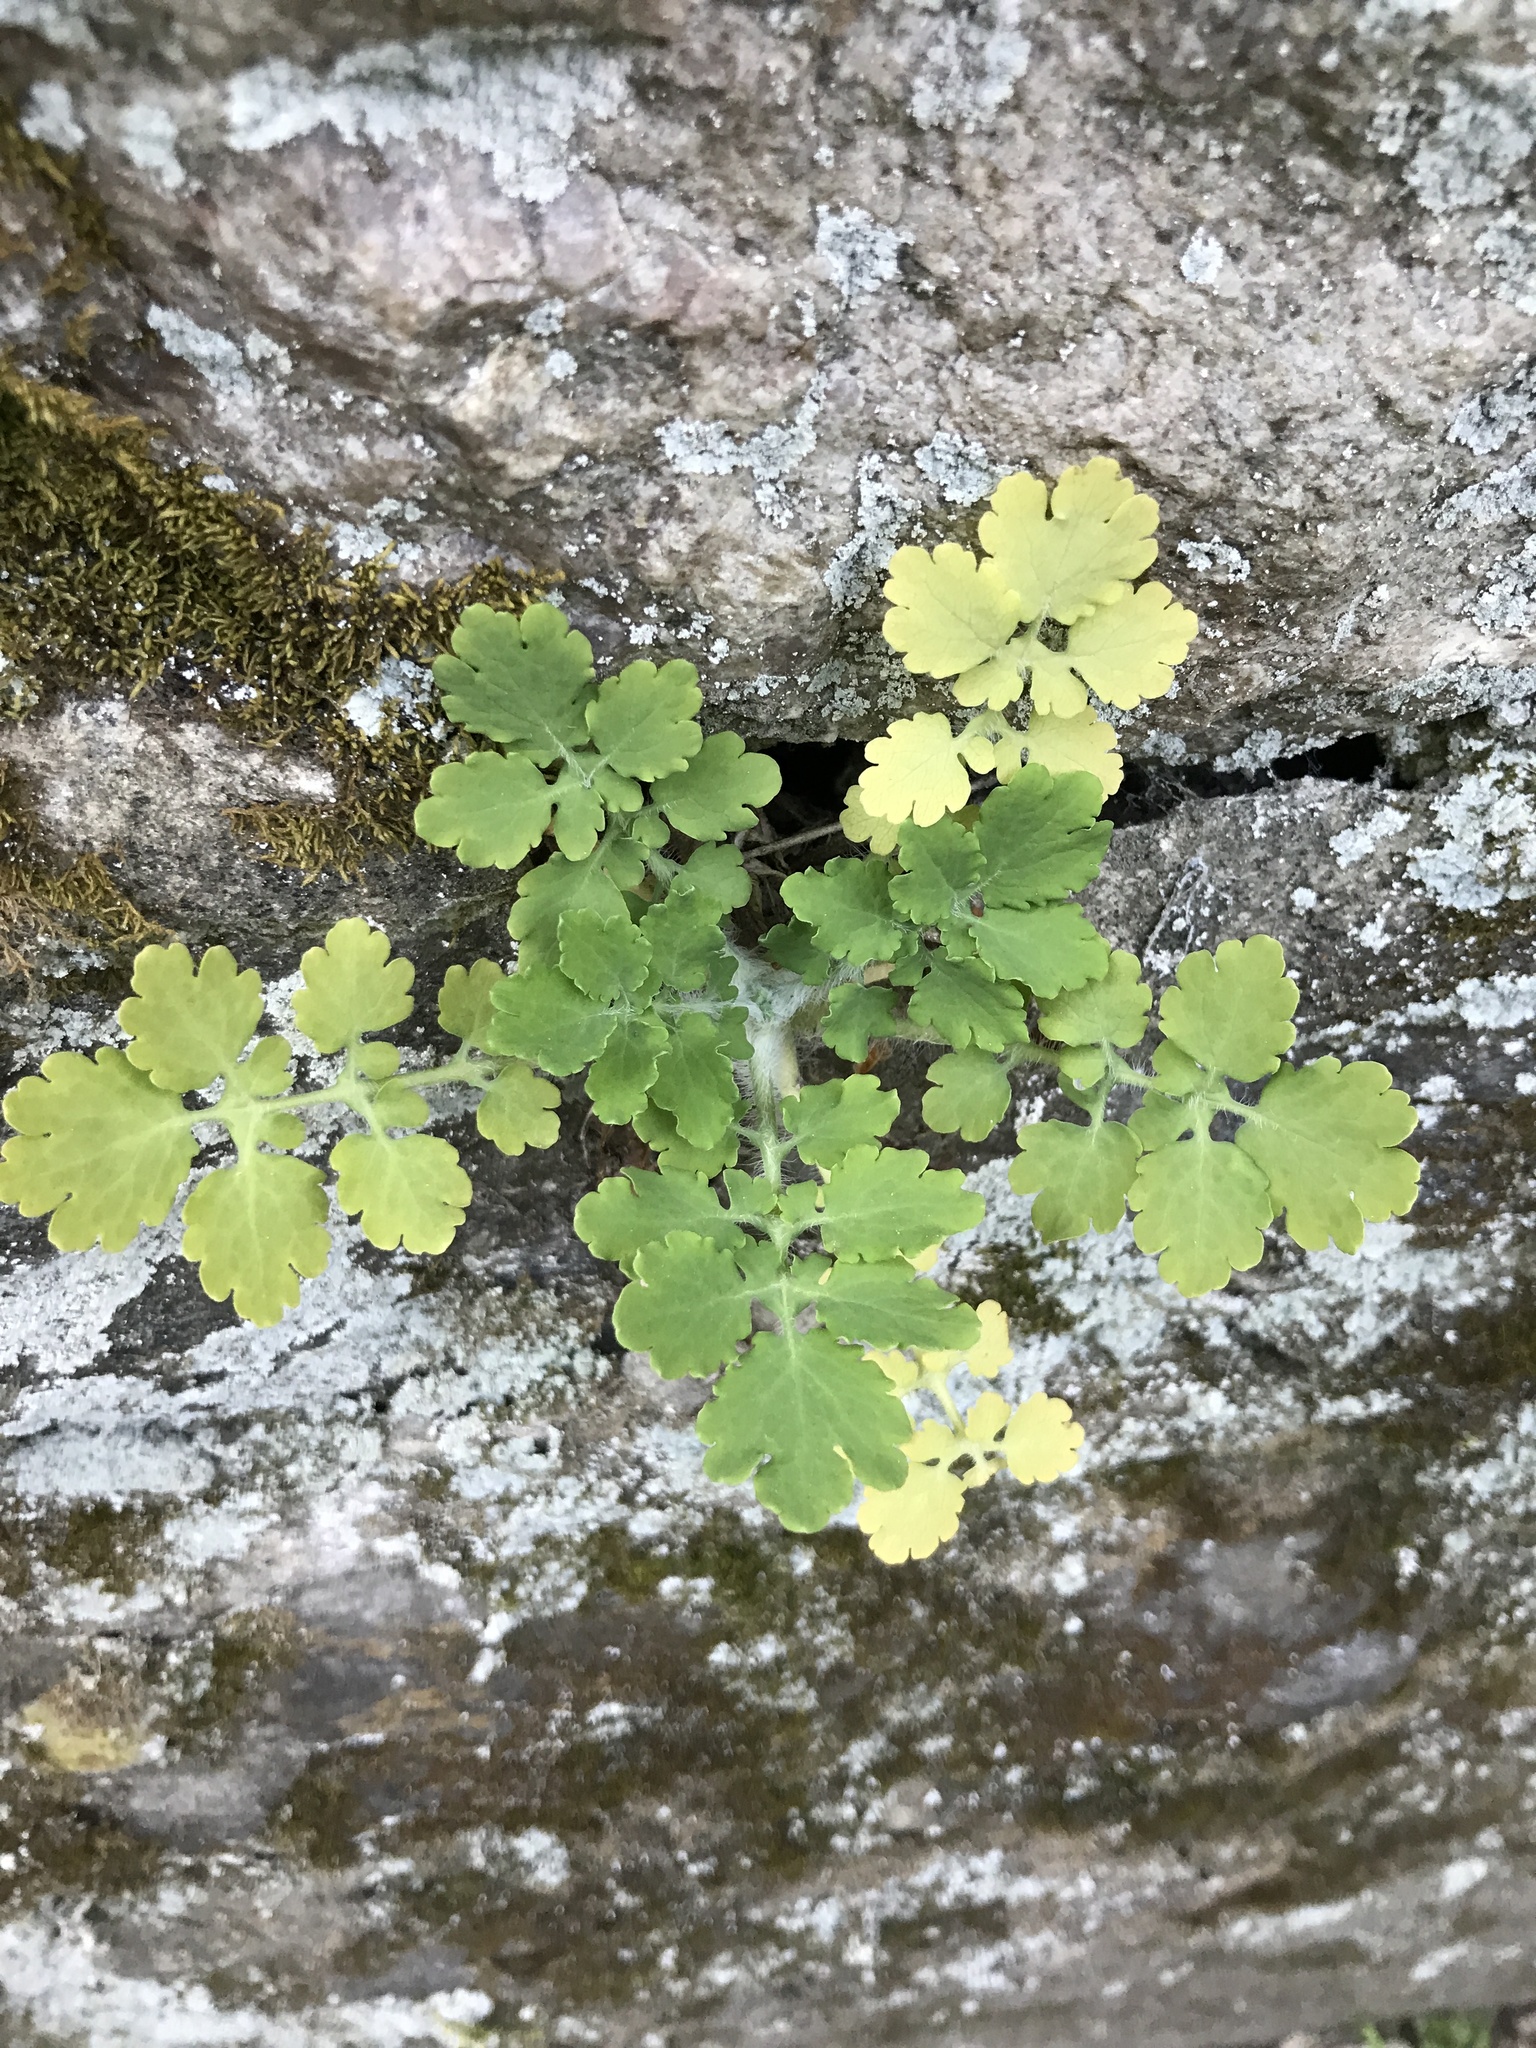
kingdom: Plantae
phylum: Tracheophyta
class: Magnoliopsida
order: Ranunculales
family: Papaveraceae
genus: Chelidonium
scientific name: Chelidonium majus
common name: Greater celandine
